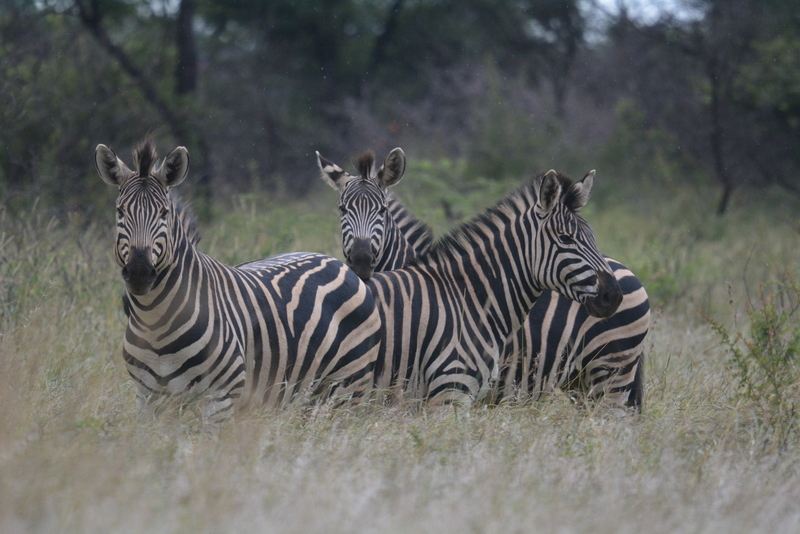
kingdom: Animalia
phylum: Chordata
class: Mammalia
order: Perissodactyla
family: Equidae
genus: Equus
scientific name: Equus quagga
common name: Plains zebra
